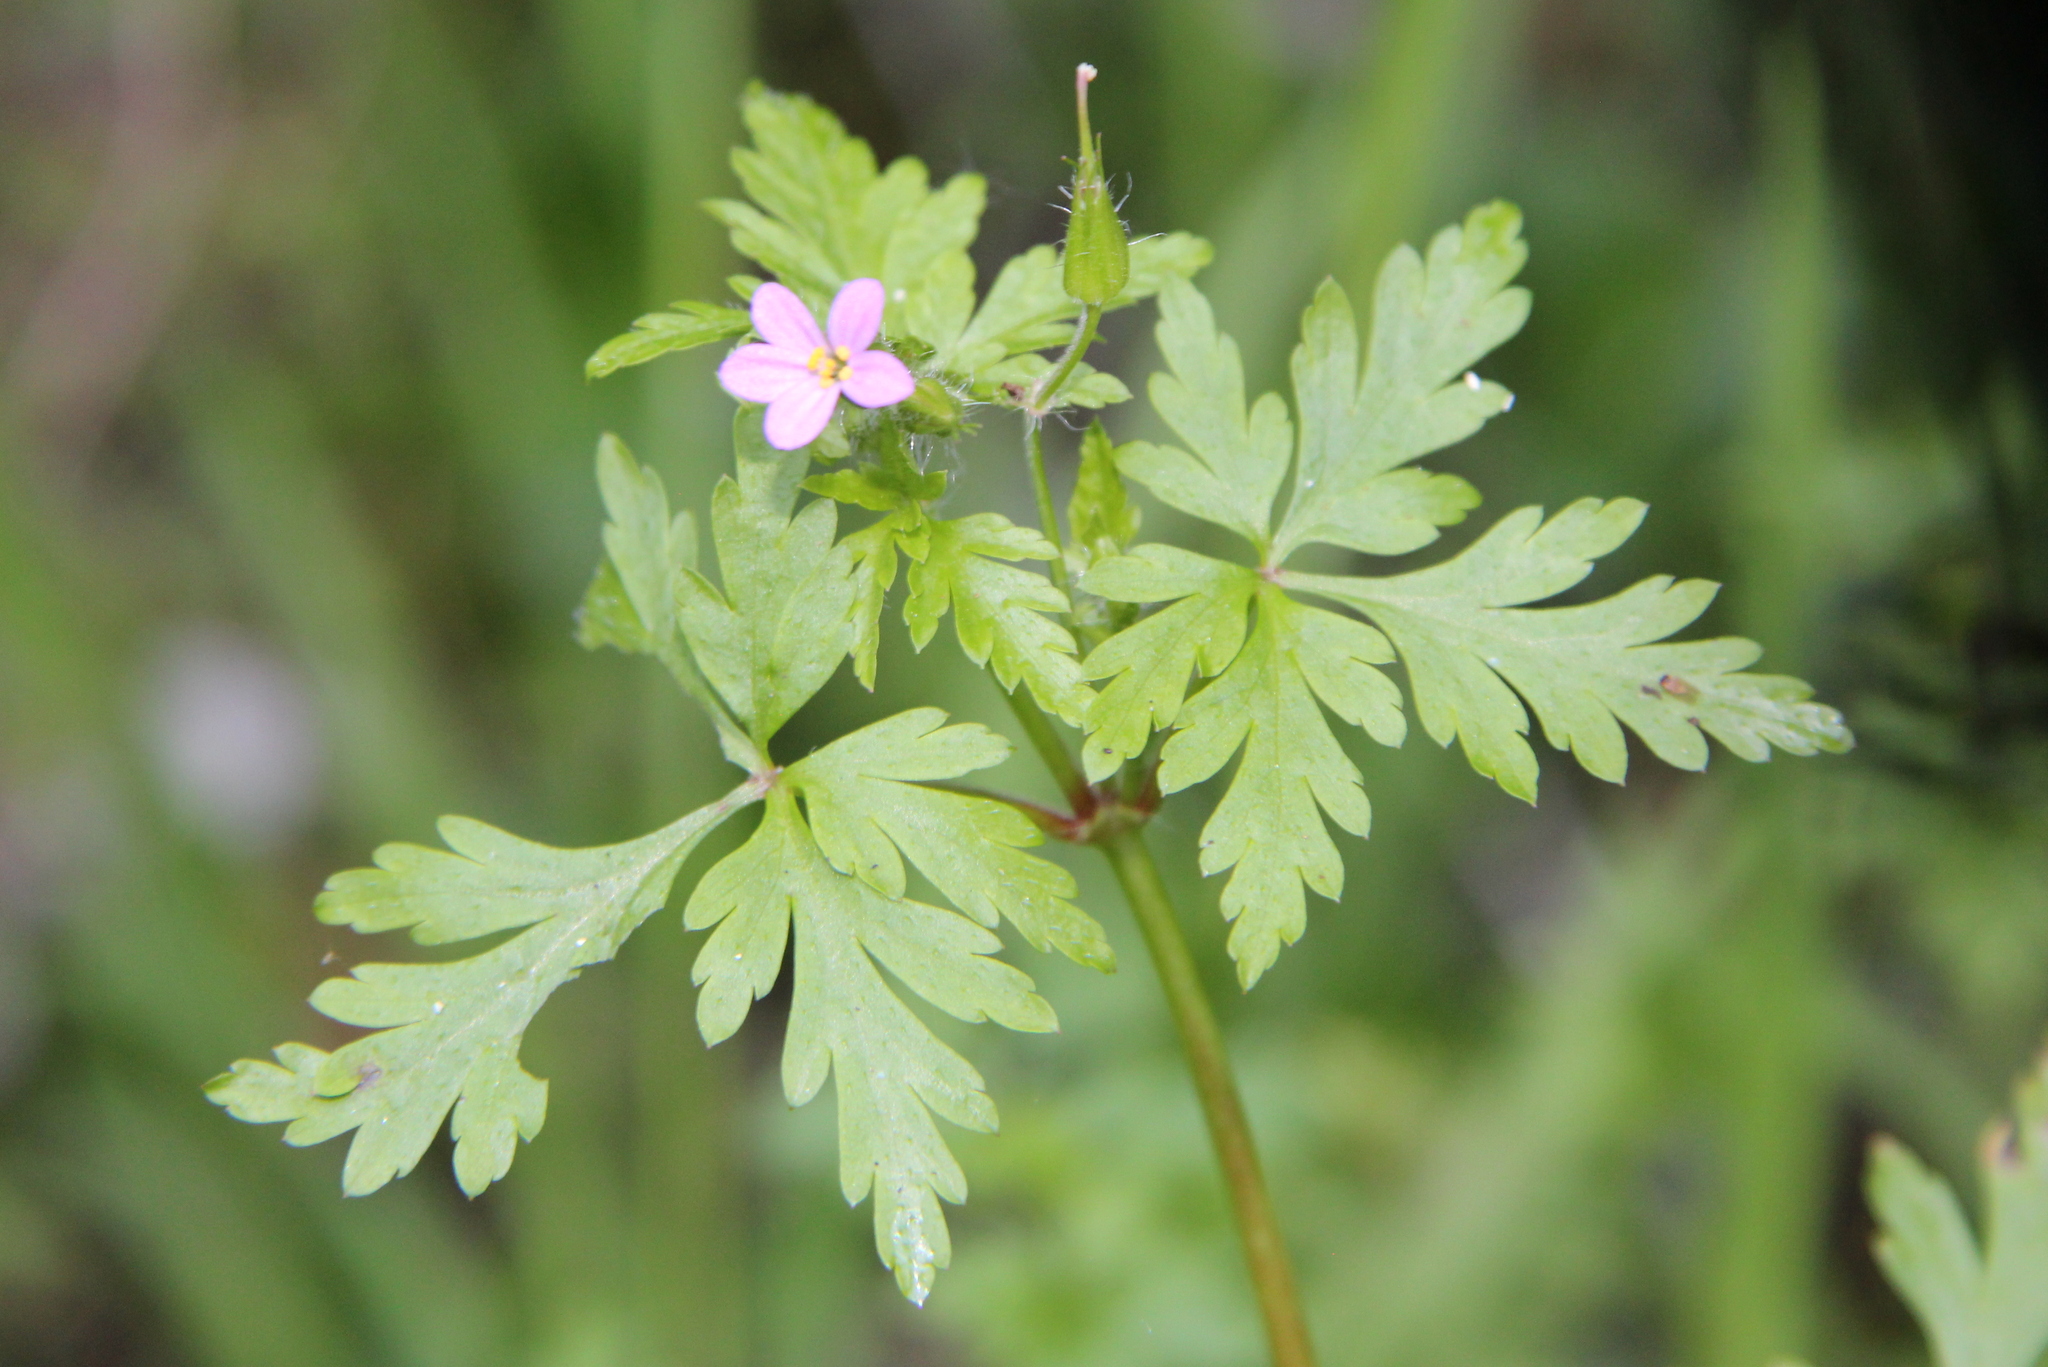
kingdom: Plantae
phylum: Tracheophyta
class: Magnoliopsida
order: Geraniales
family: Geraniaceae
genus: Geranium
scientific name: Geranium purpureum
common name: Little-robin
